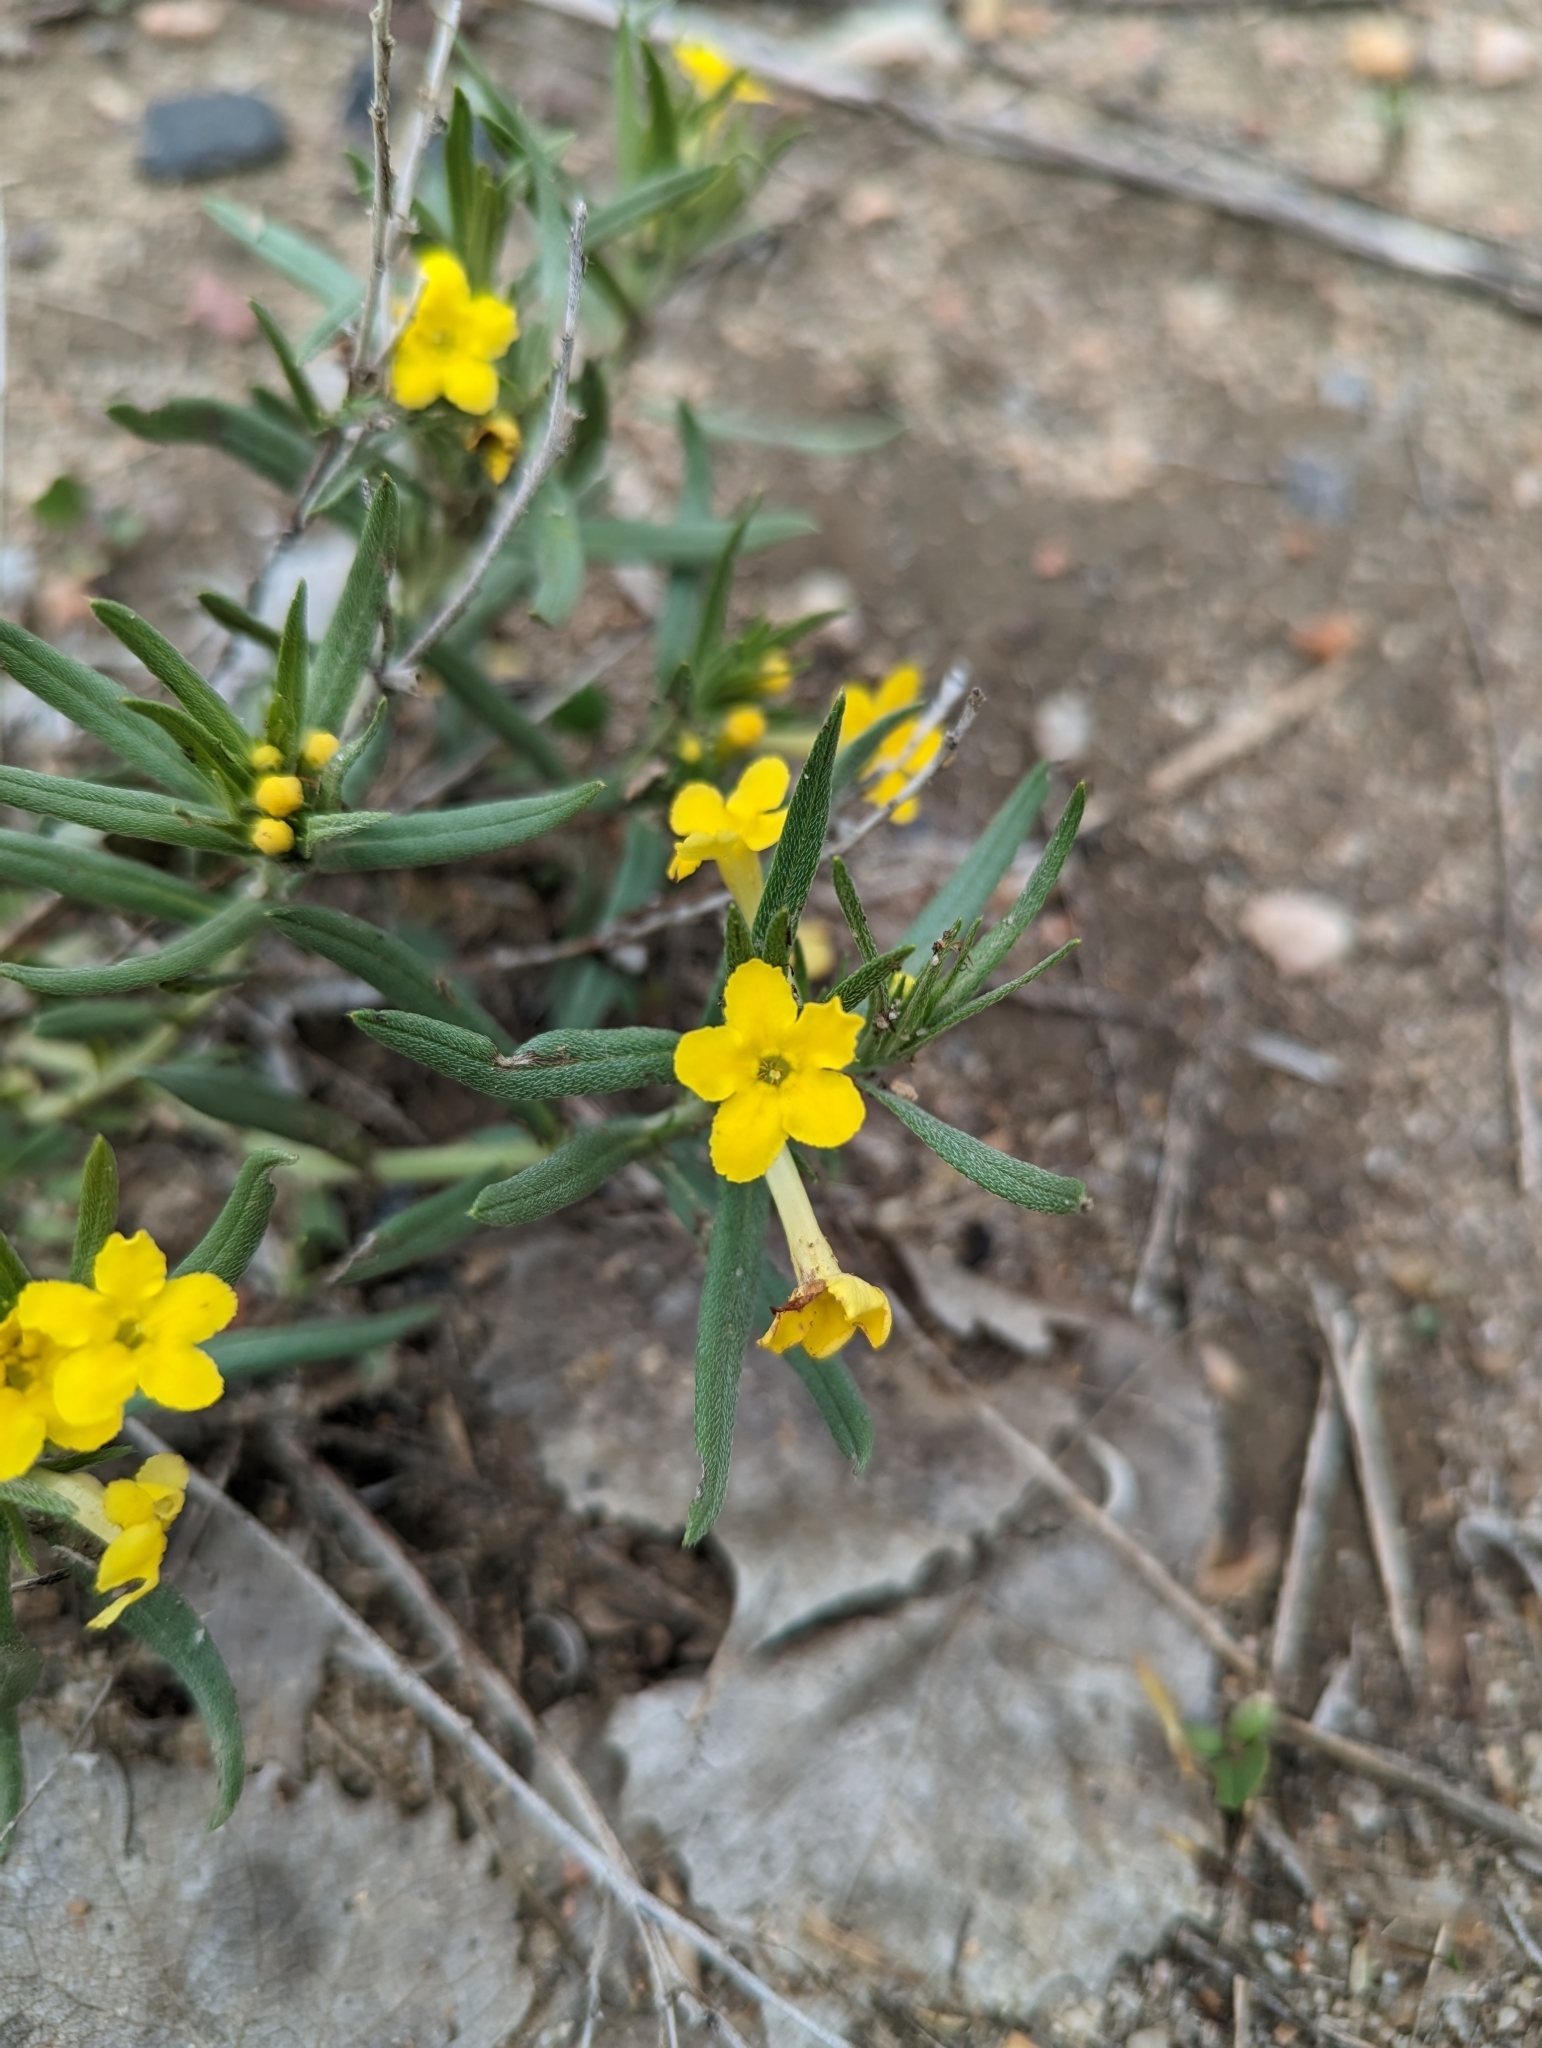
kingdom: Plantae
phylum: Tracheophyta
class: Magnoliopsida
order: Boraginales
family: Boraginaceae
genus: Lithospermum
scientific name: Lithospermum incisum
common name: Fringed gromwell
